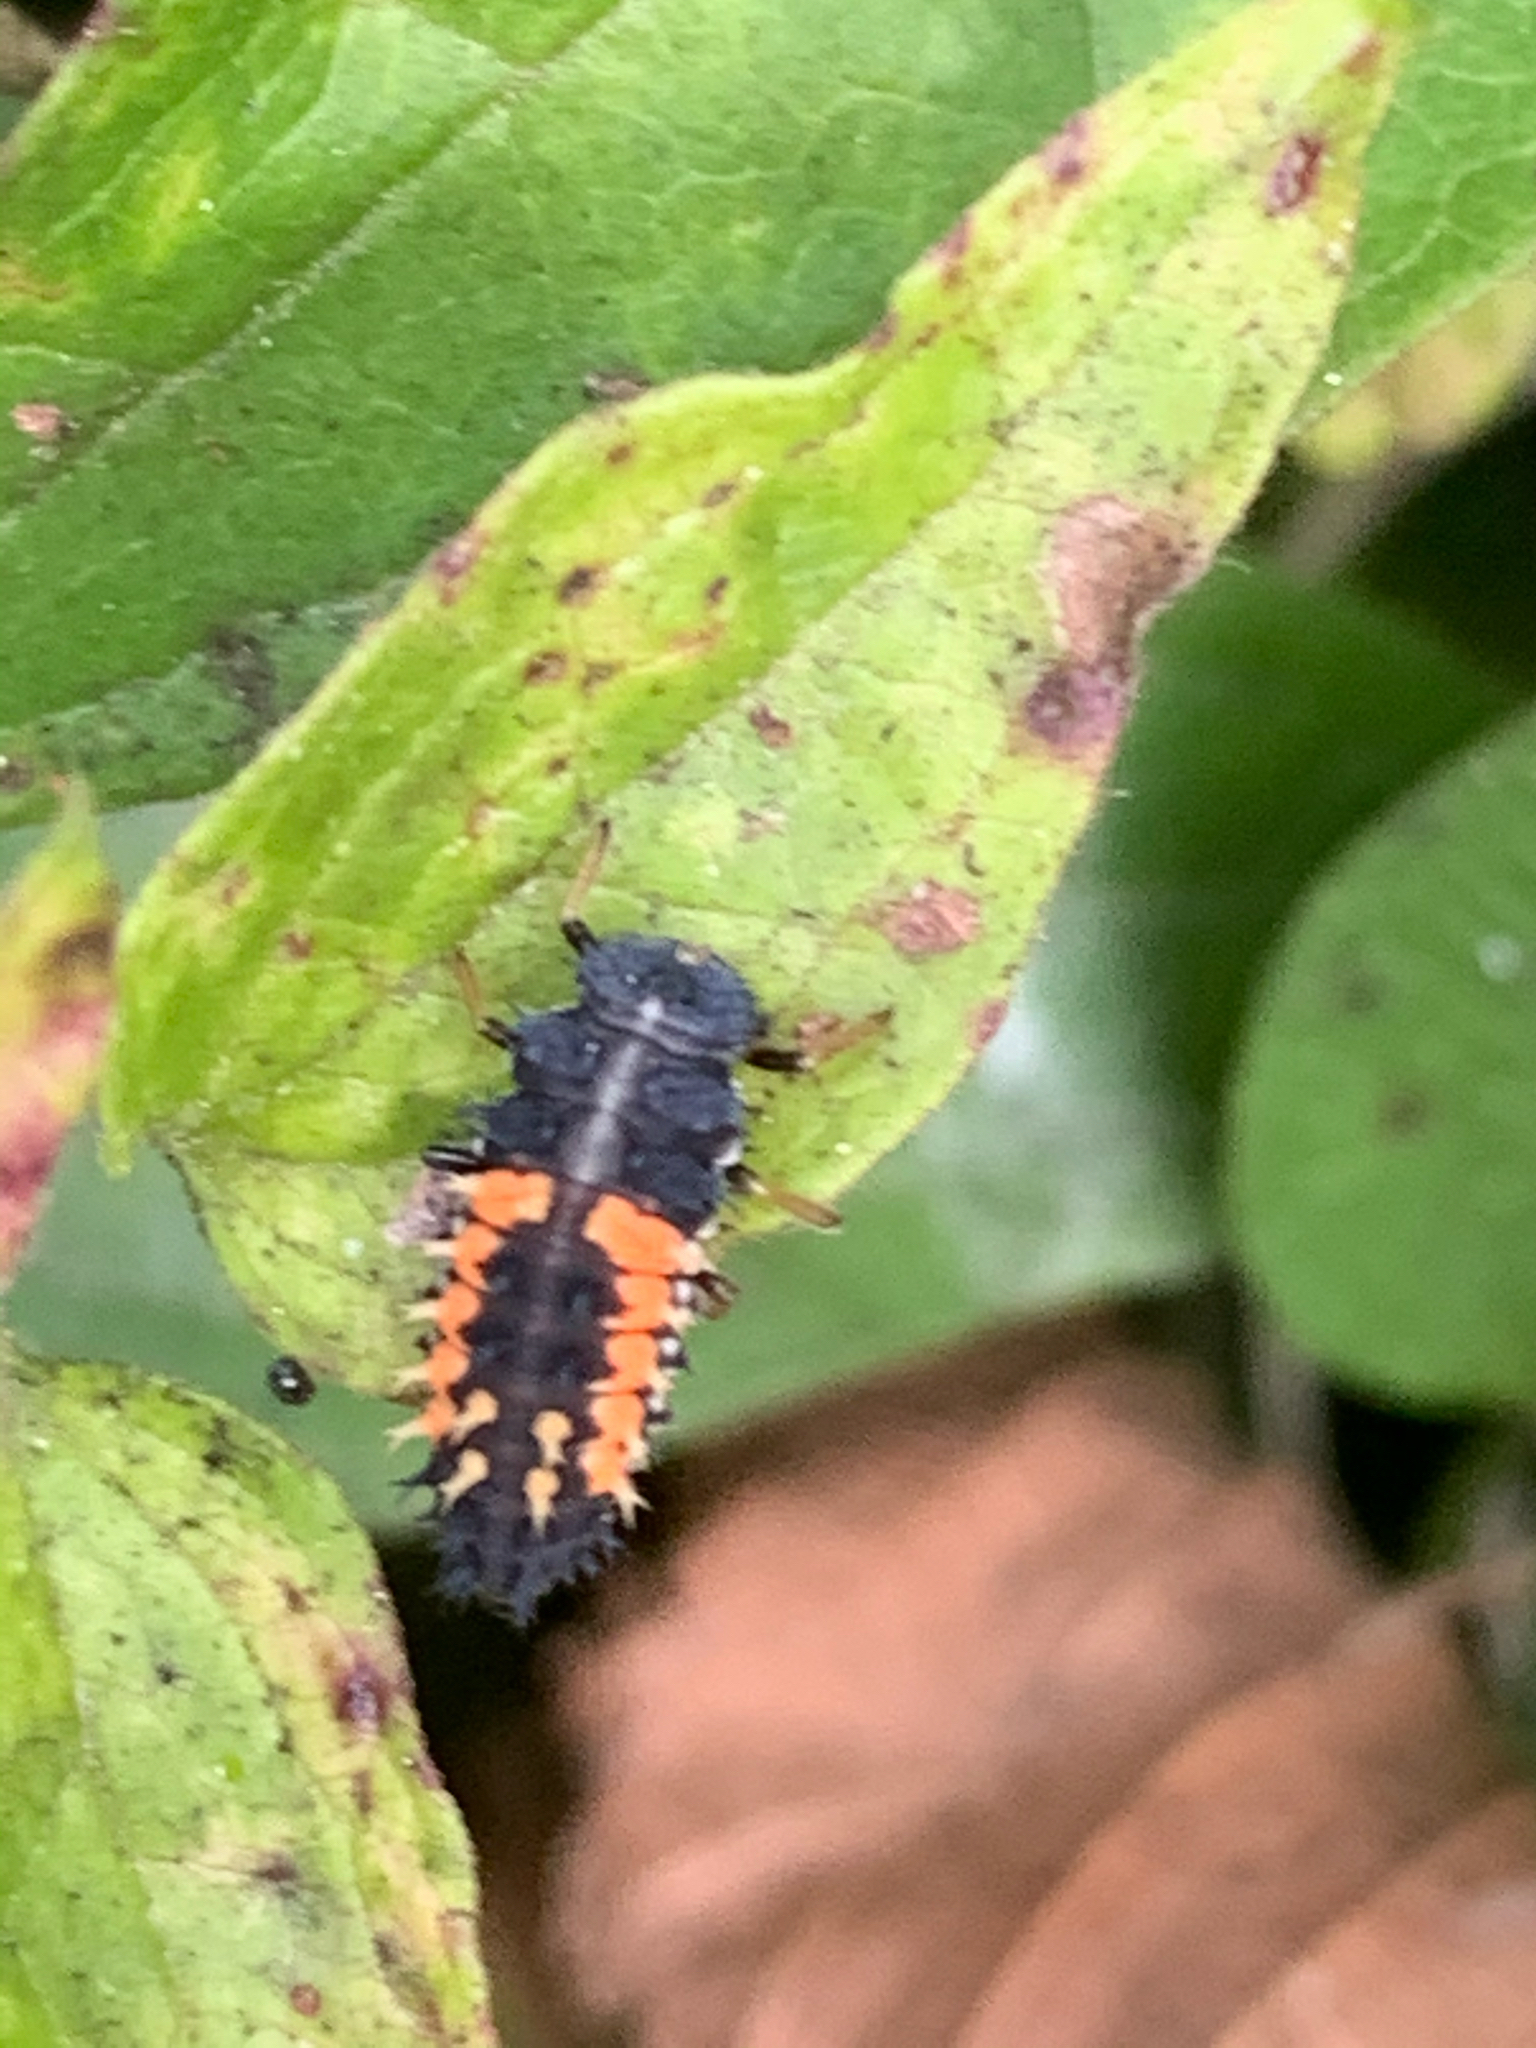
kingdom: Animalia
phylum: Arthropoda
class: Insecta
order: Coleoptera
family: Coccinellidae
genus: Harmonia
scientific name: Harmonia axyridis
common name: Harlequin ladybird
